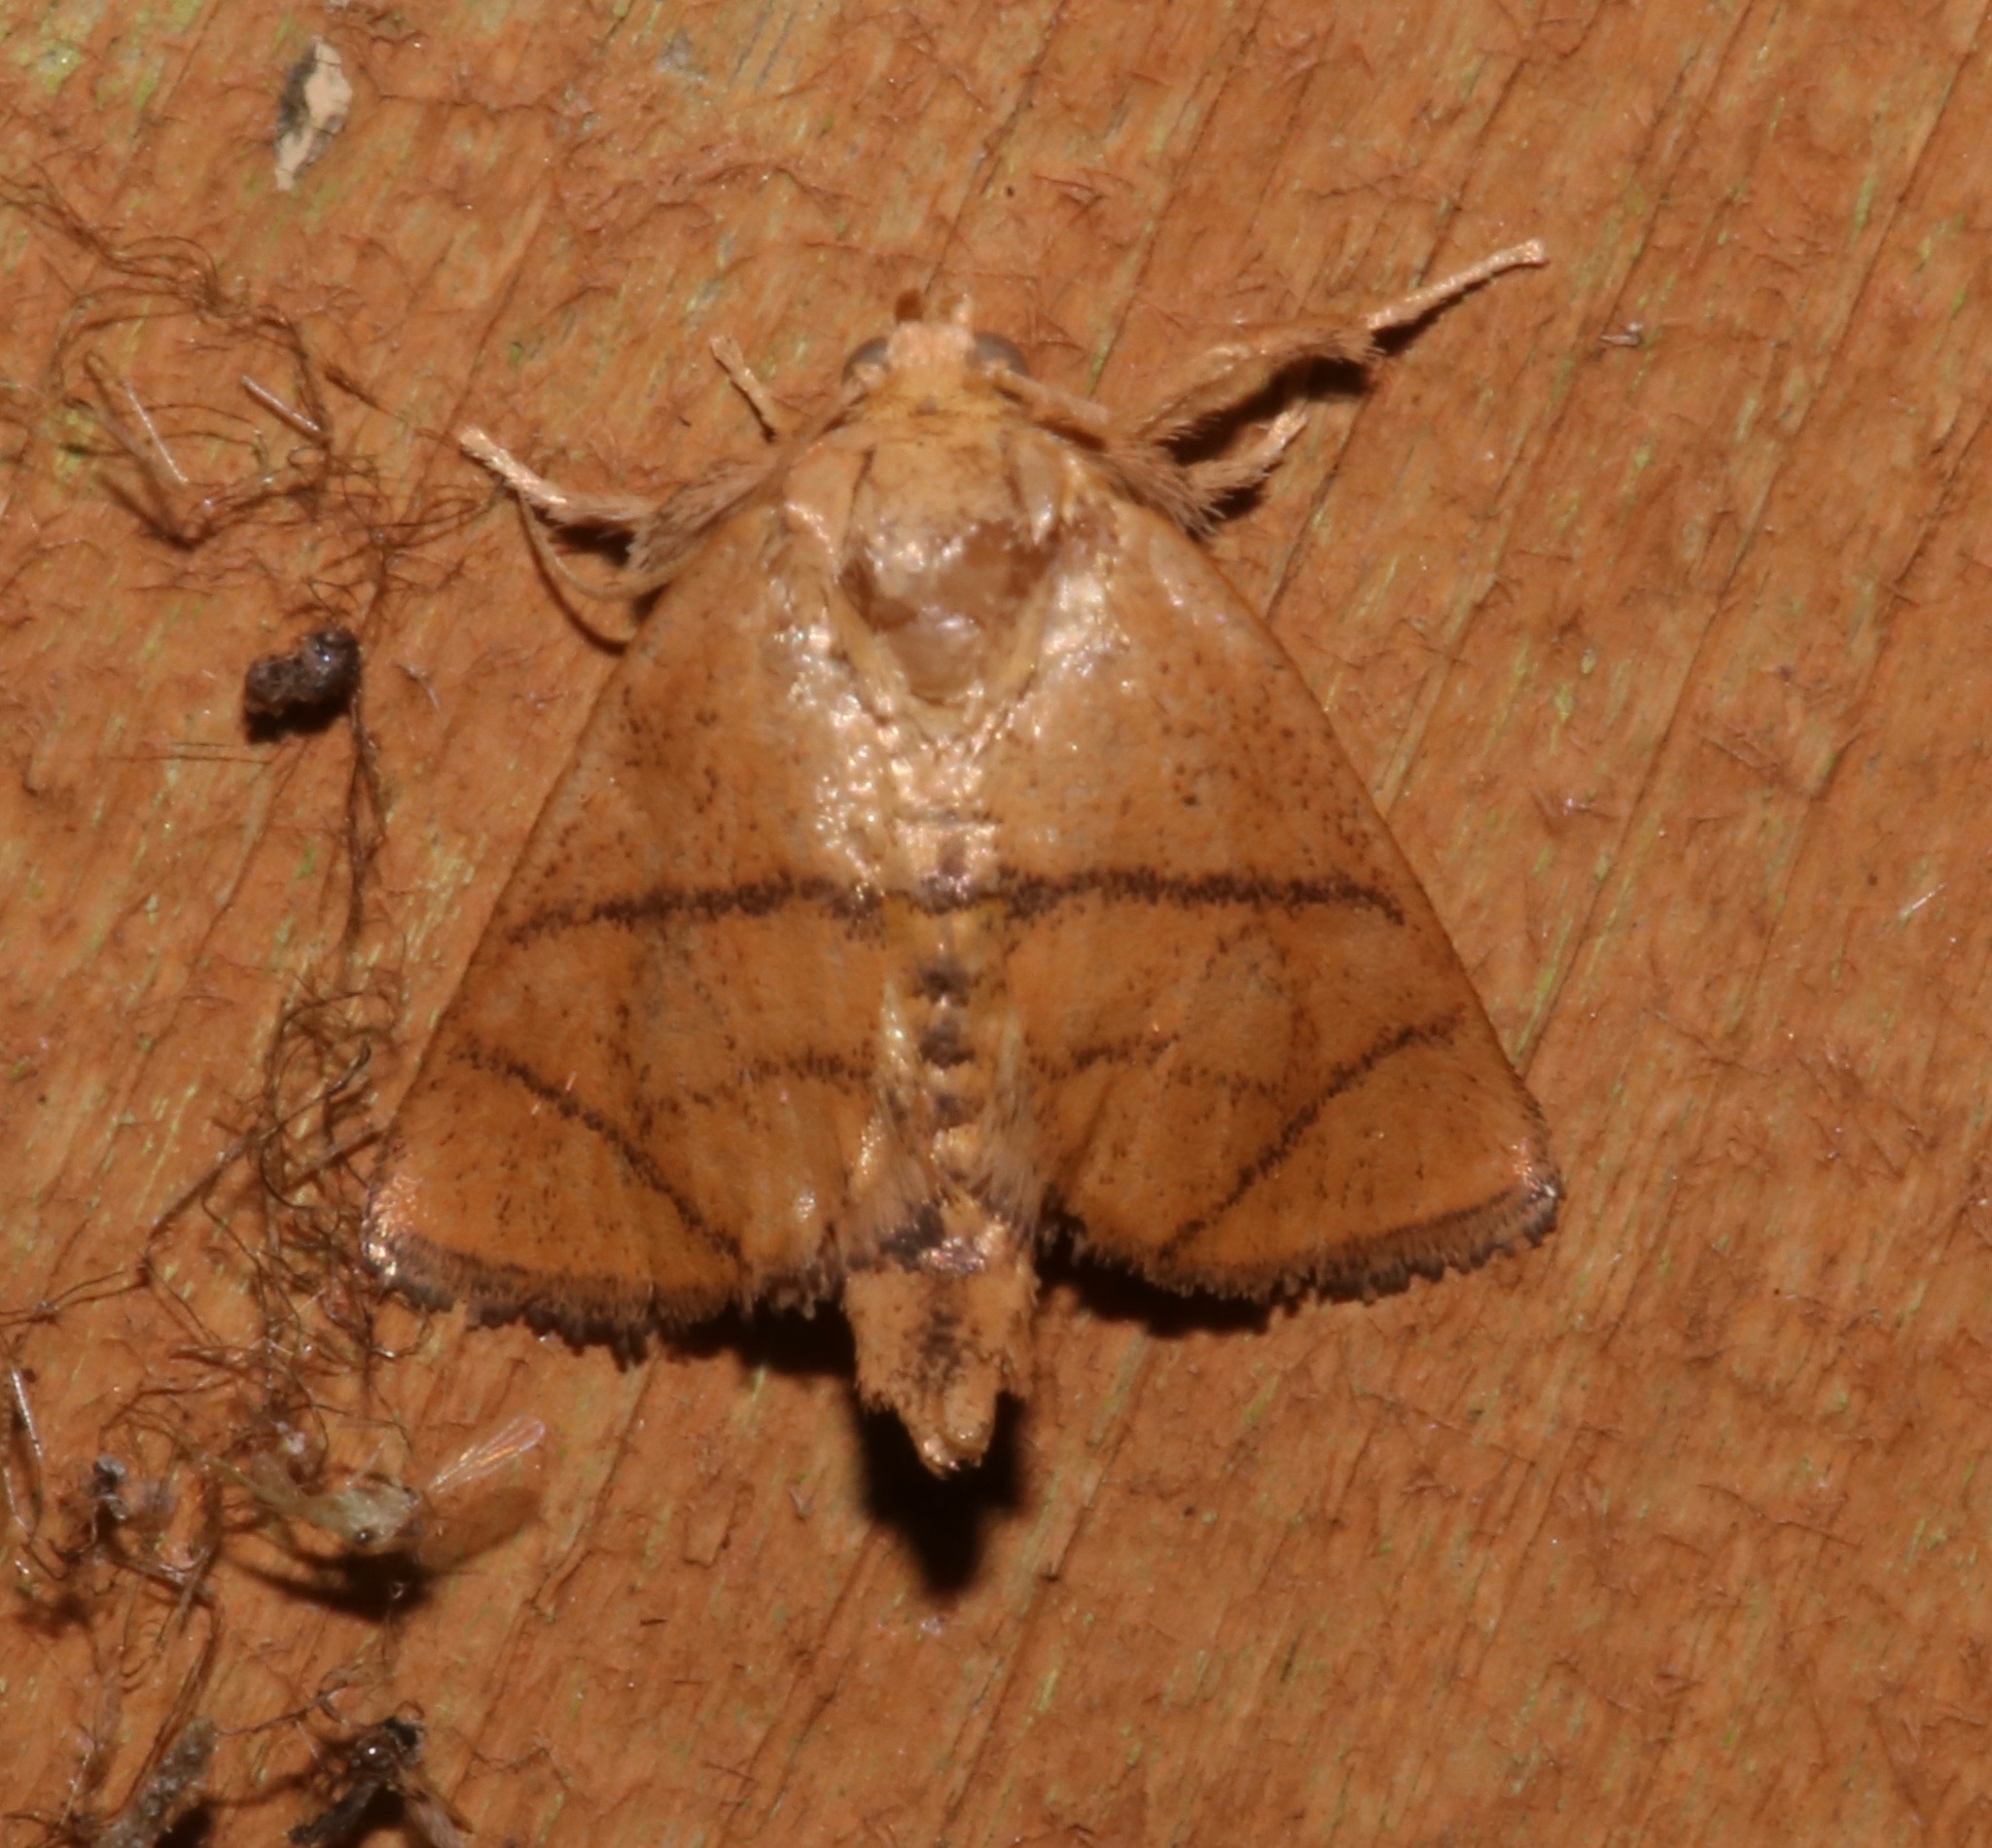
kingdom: Animalia
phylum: Arthropoda
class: Insecta
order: Lepidoptera
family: Limacodidae
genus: Apoda
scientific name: Apoda y-inversa
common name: Yellow-collared slug moth
